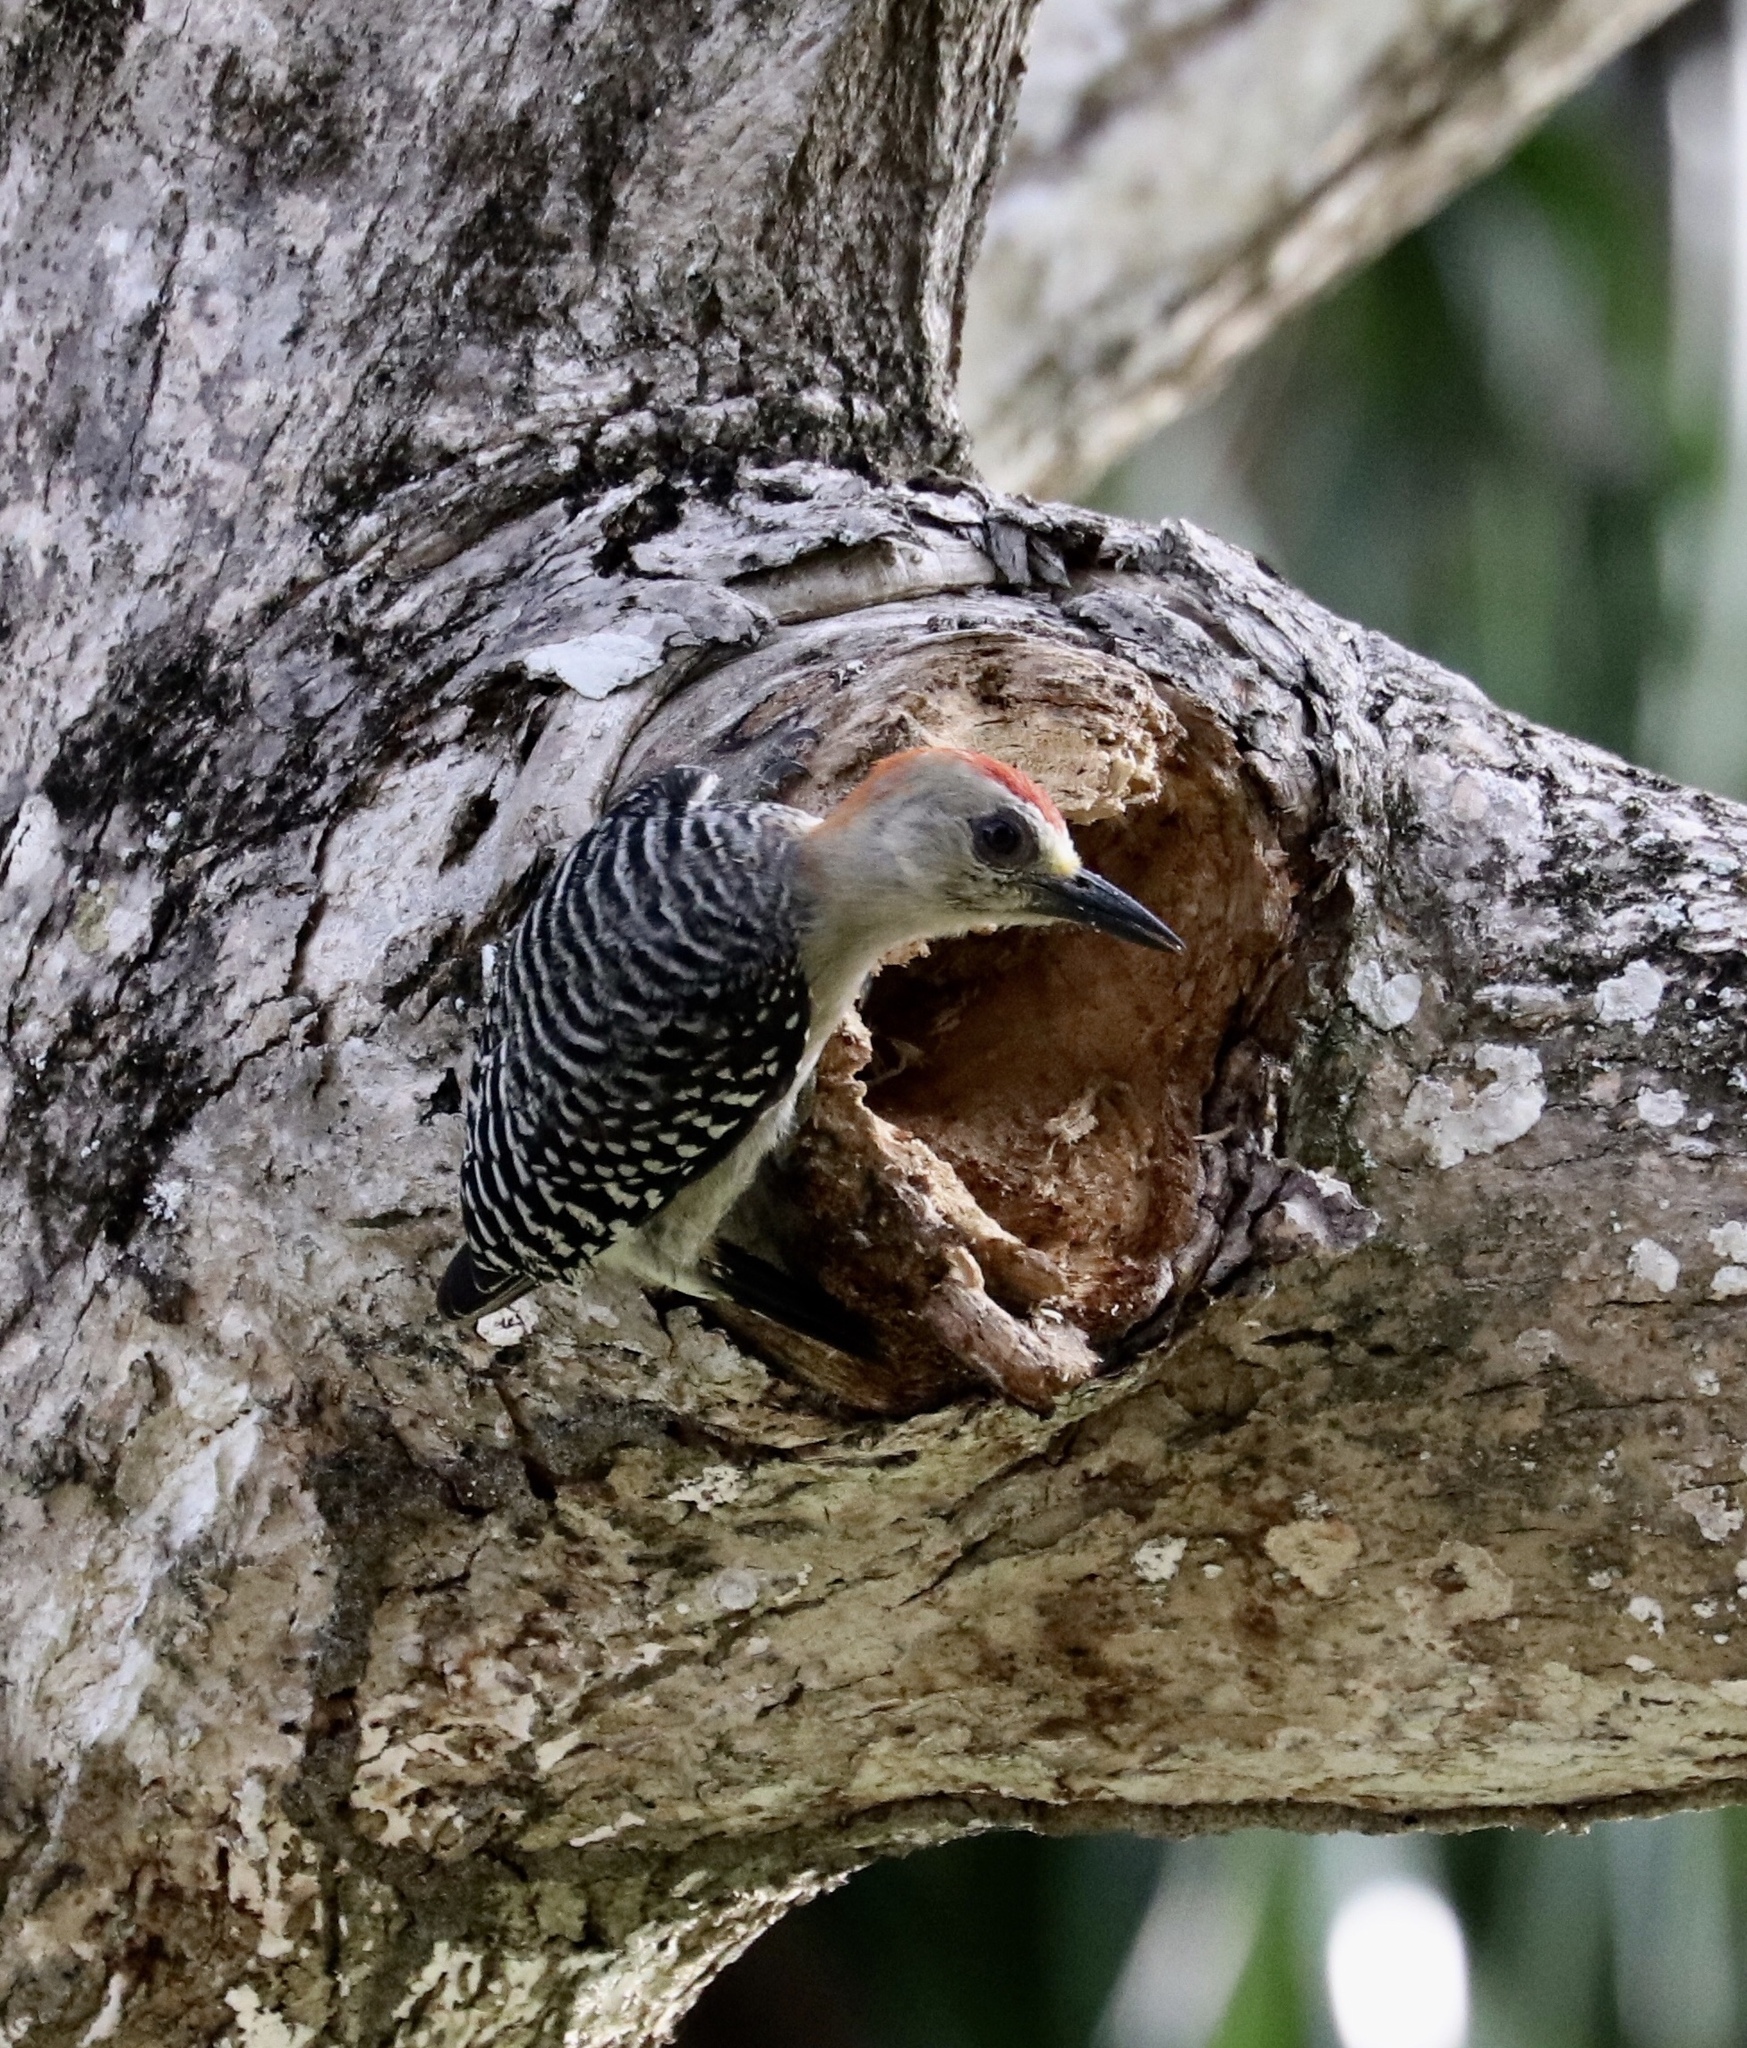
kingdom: Animalia
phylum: Chordata
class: Aves
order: Piciformes
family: Picidae
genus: Melanerpes
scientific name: Melanerpes rubricapillus
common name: Red-crowned woodpecker
